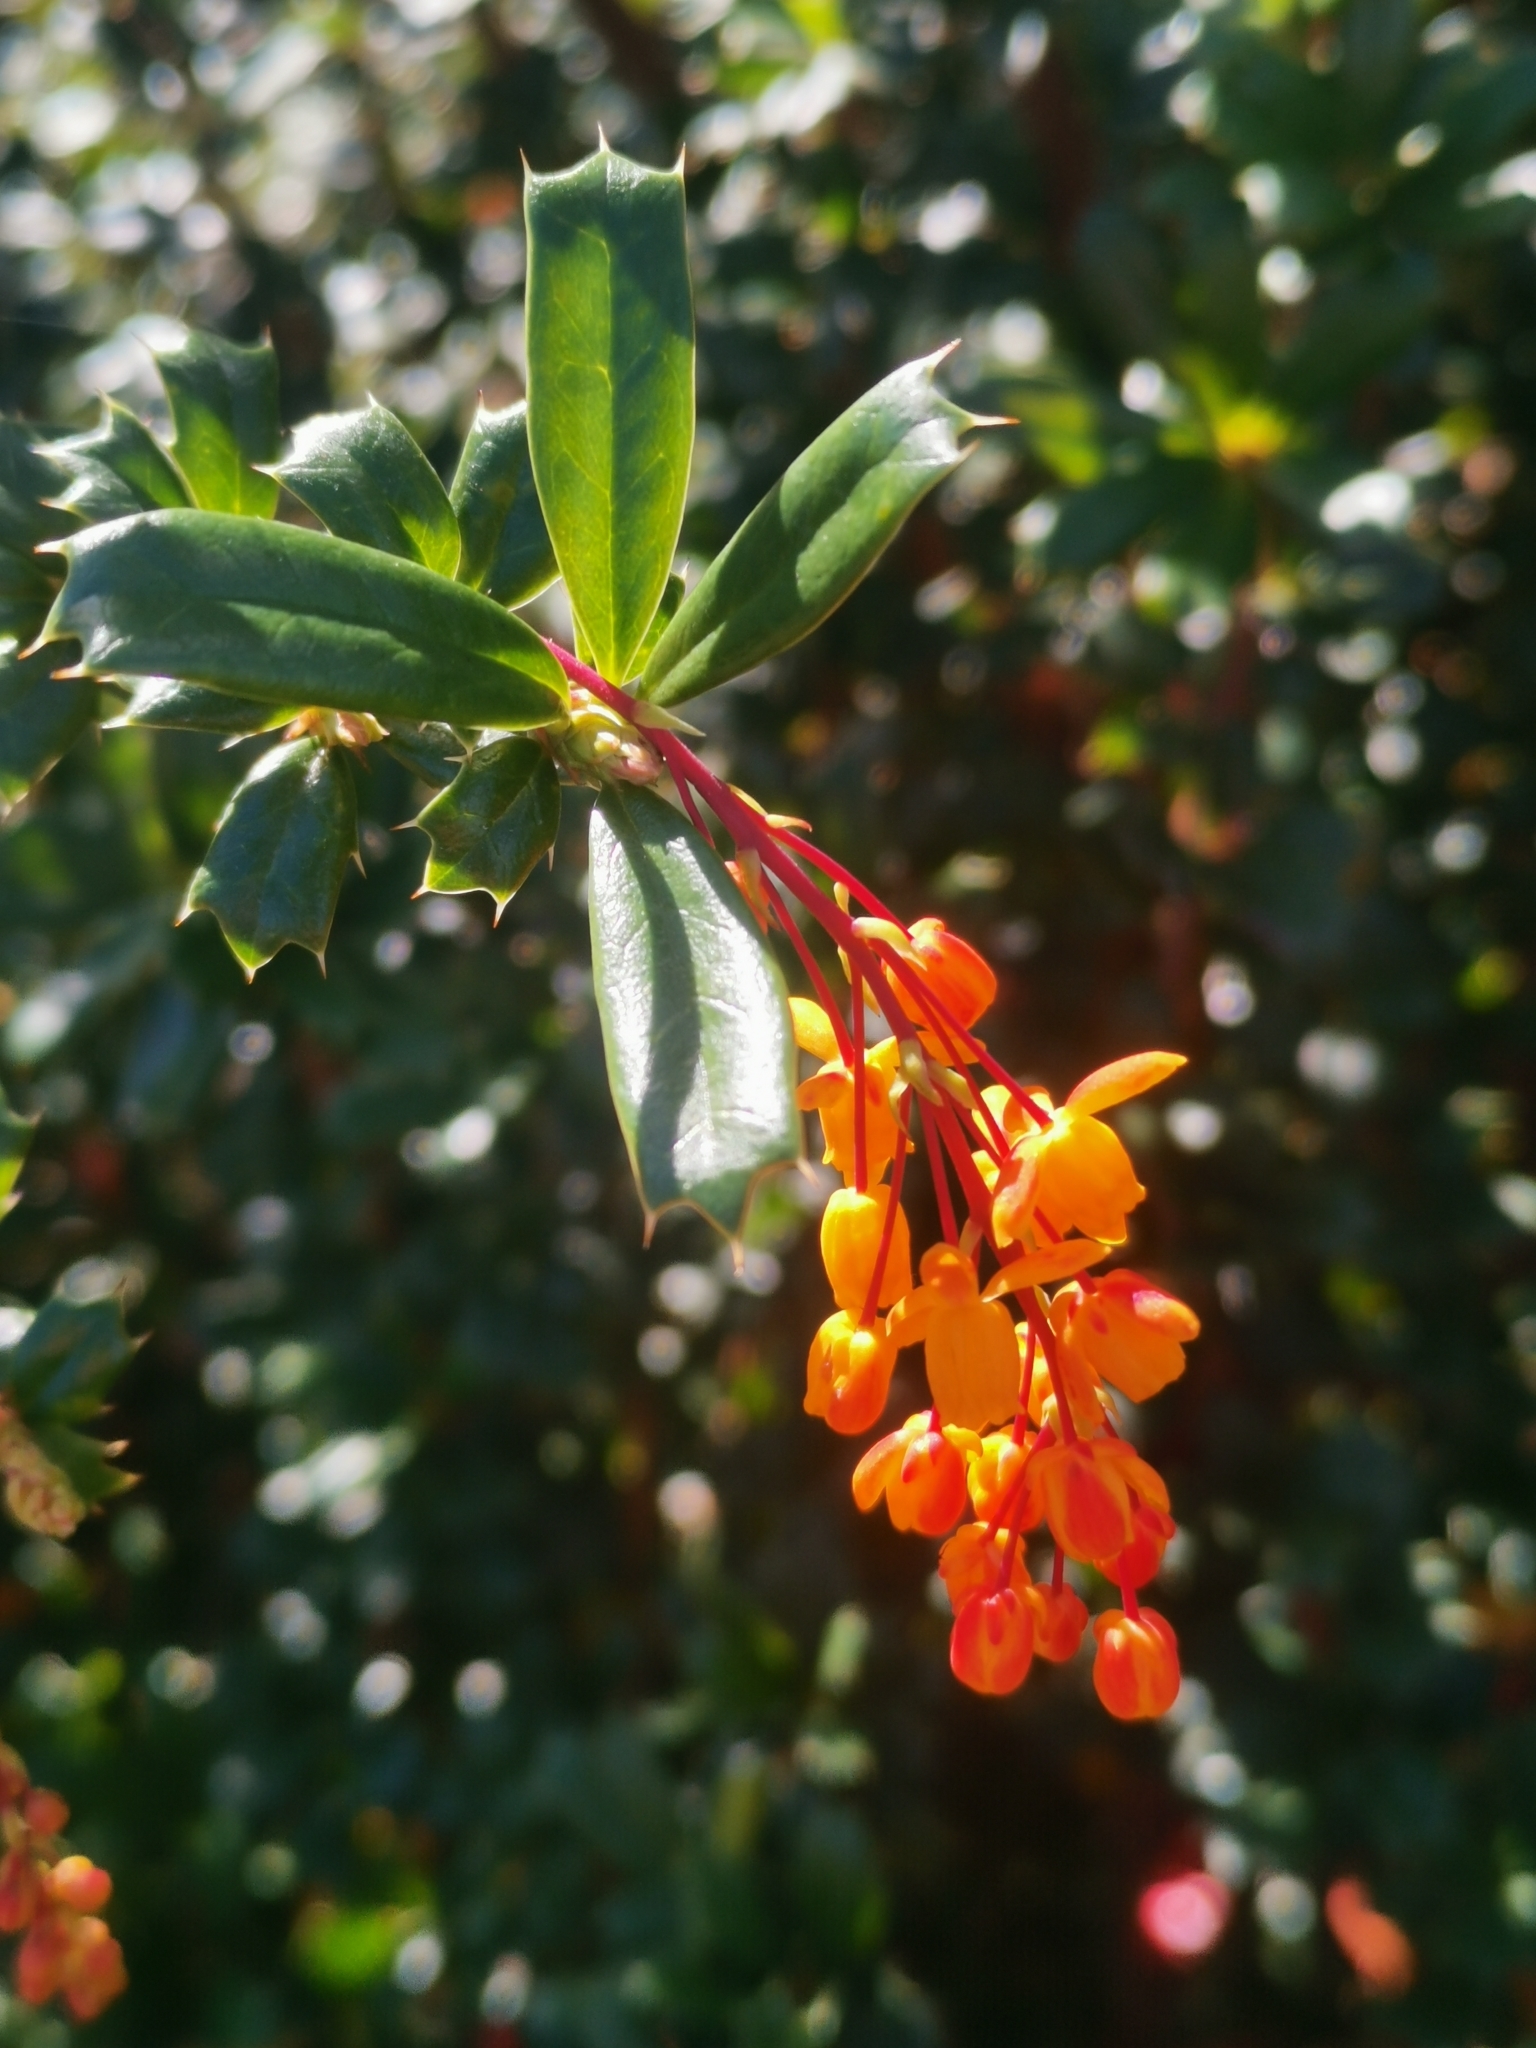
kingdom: Plantae
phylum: Tracheophyta
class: Magnoliopsida
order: Ranunculales
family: Berberidaceae
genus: Berberis
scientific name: Berberis darwinii
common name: Darwin's barberry
